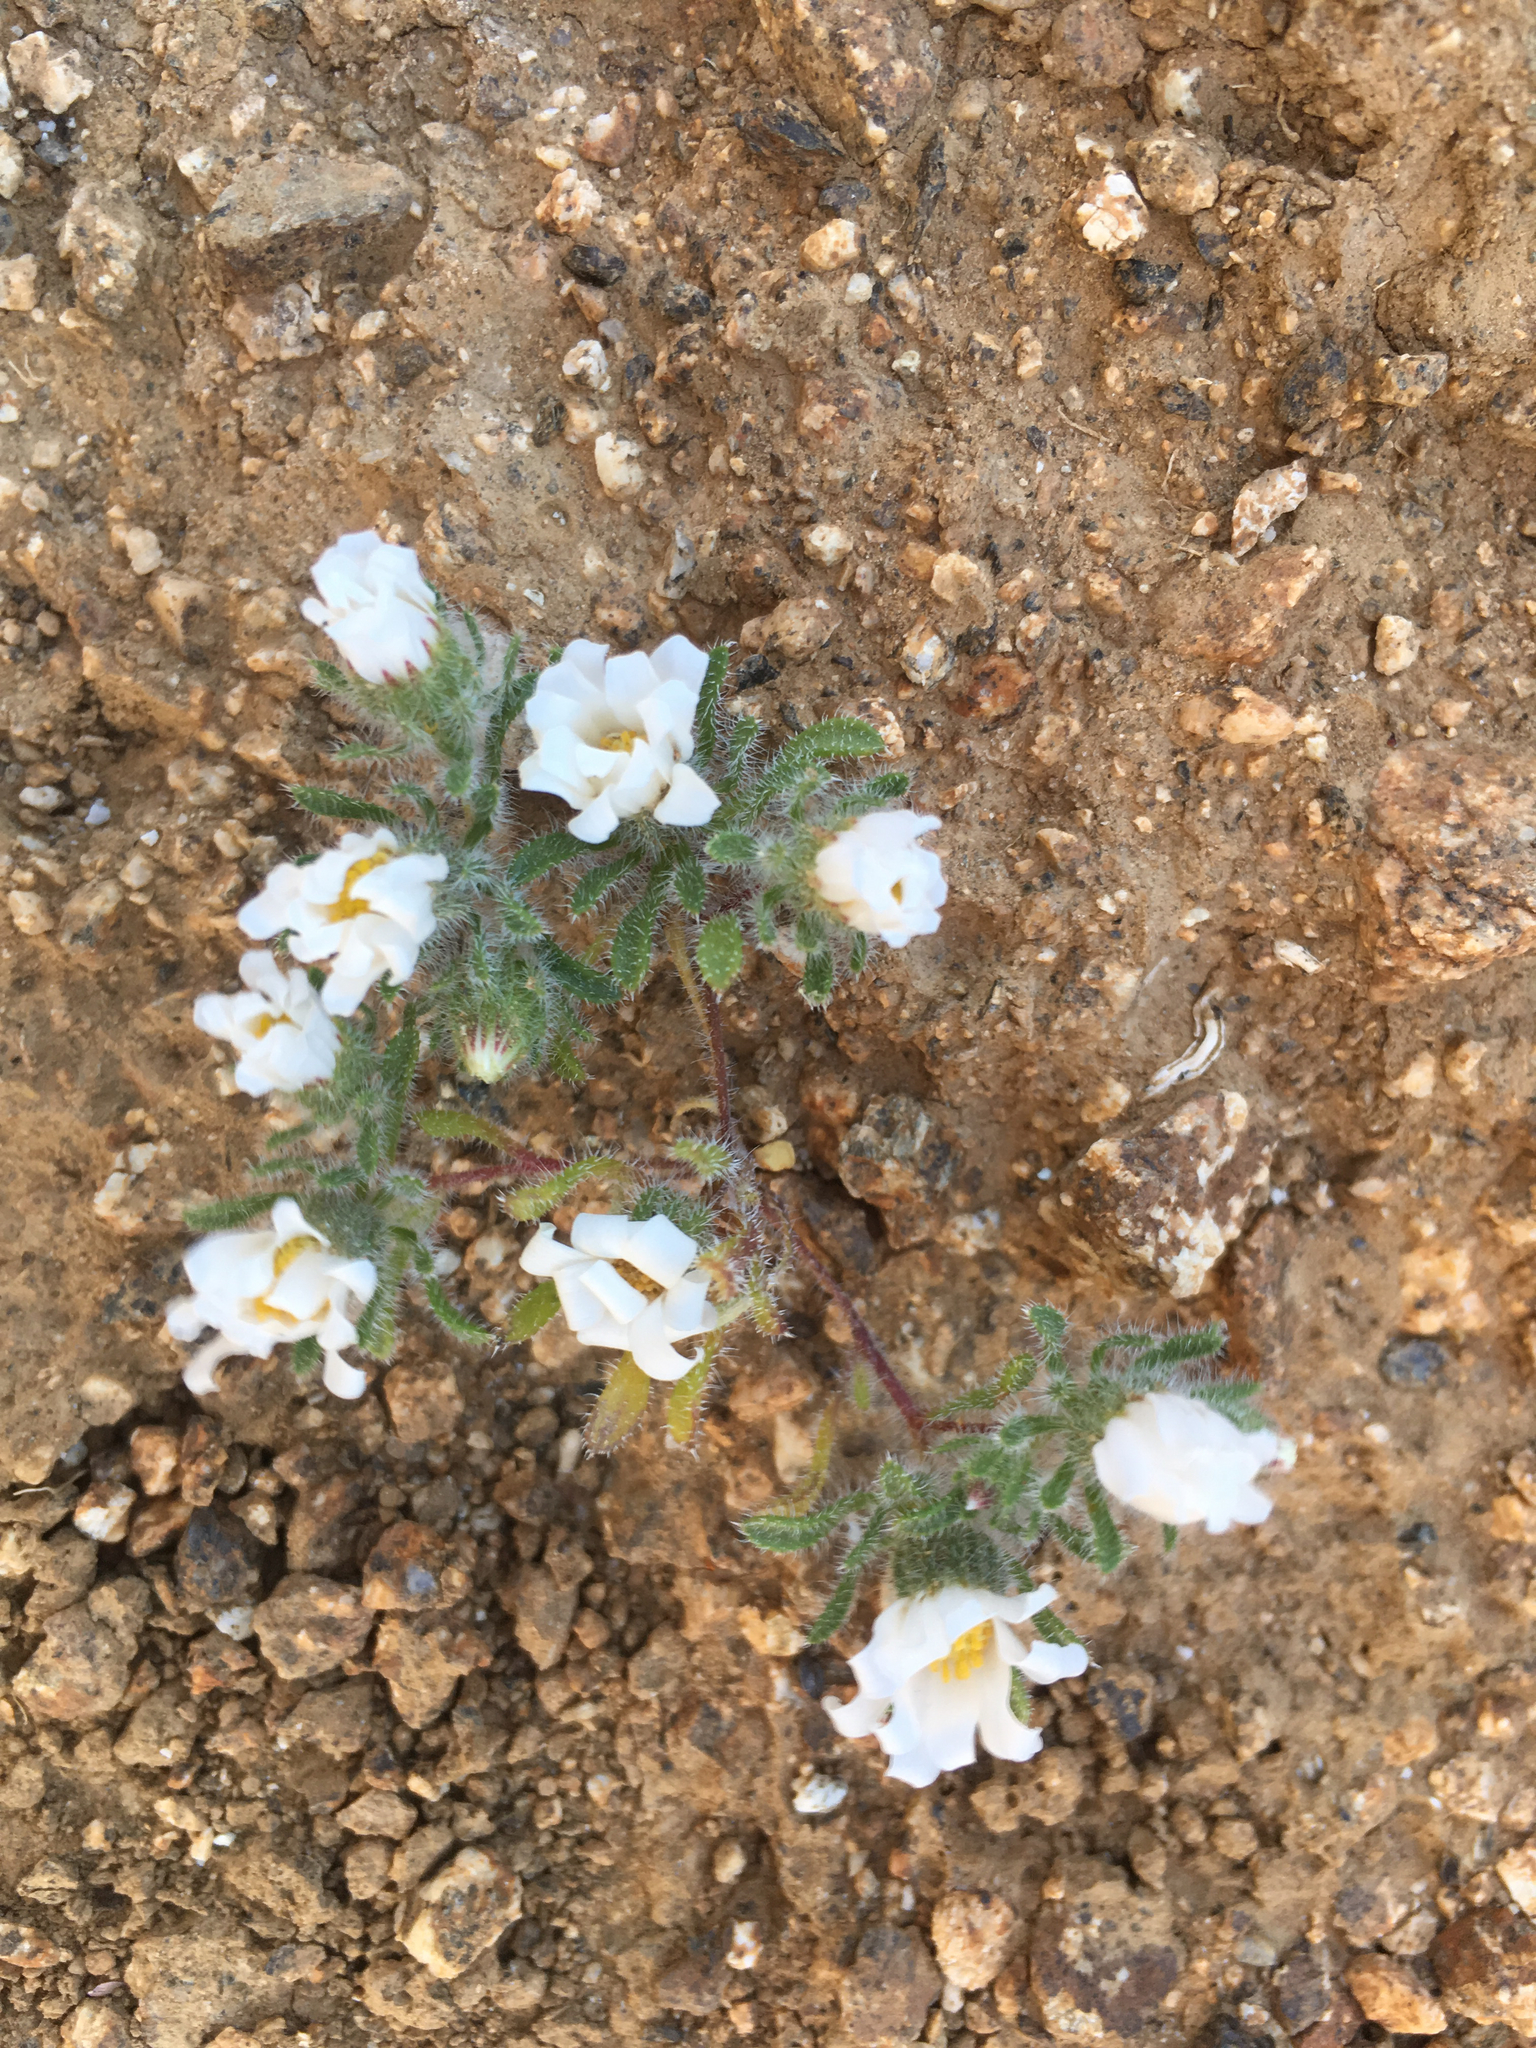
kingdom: Plantae
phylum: Tracheophyta
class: Magnoliopsida
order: Asterales
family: Asteraceae
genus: Monoptilon
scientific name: Monoptilon bellioides
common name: Bristly desertstar
